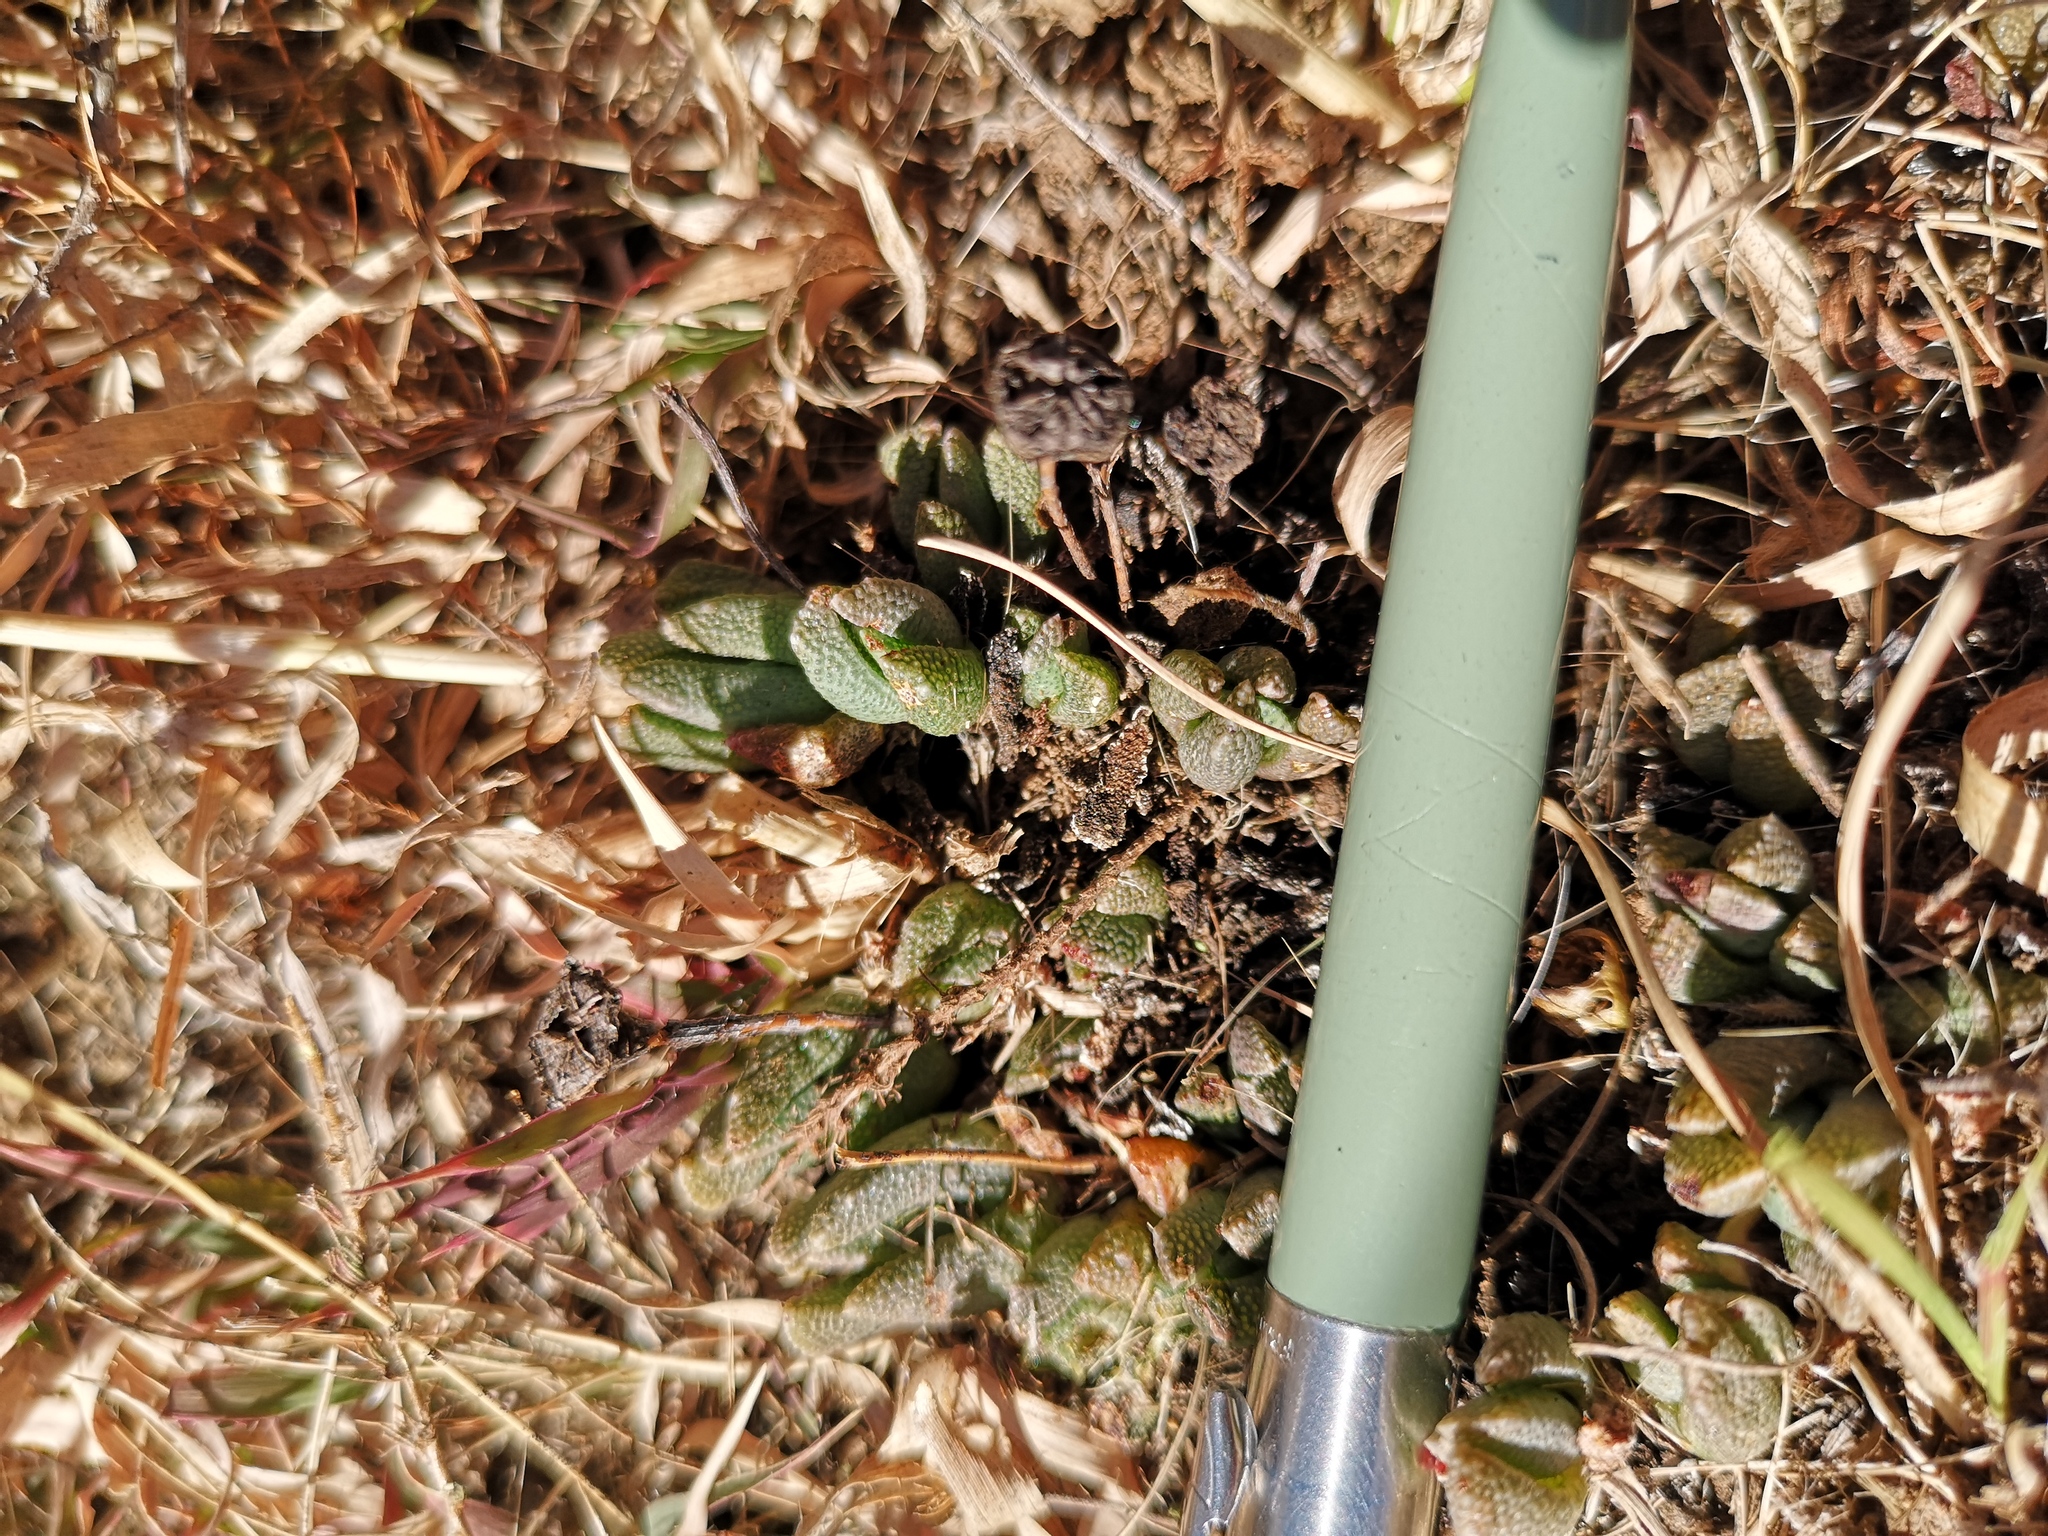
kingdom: Plantae
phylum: Tracheophyta
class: Magnoliopsida
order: Caryophyllales
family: Aizoaceae
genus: Dracophilus
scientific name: Dracophilus Chasmatophyllum musculinum
